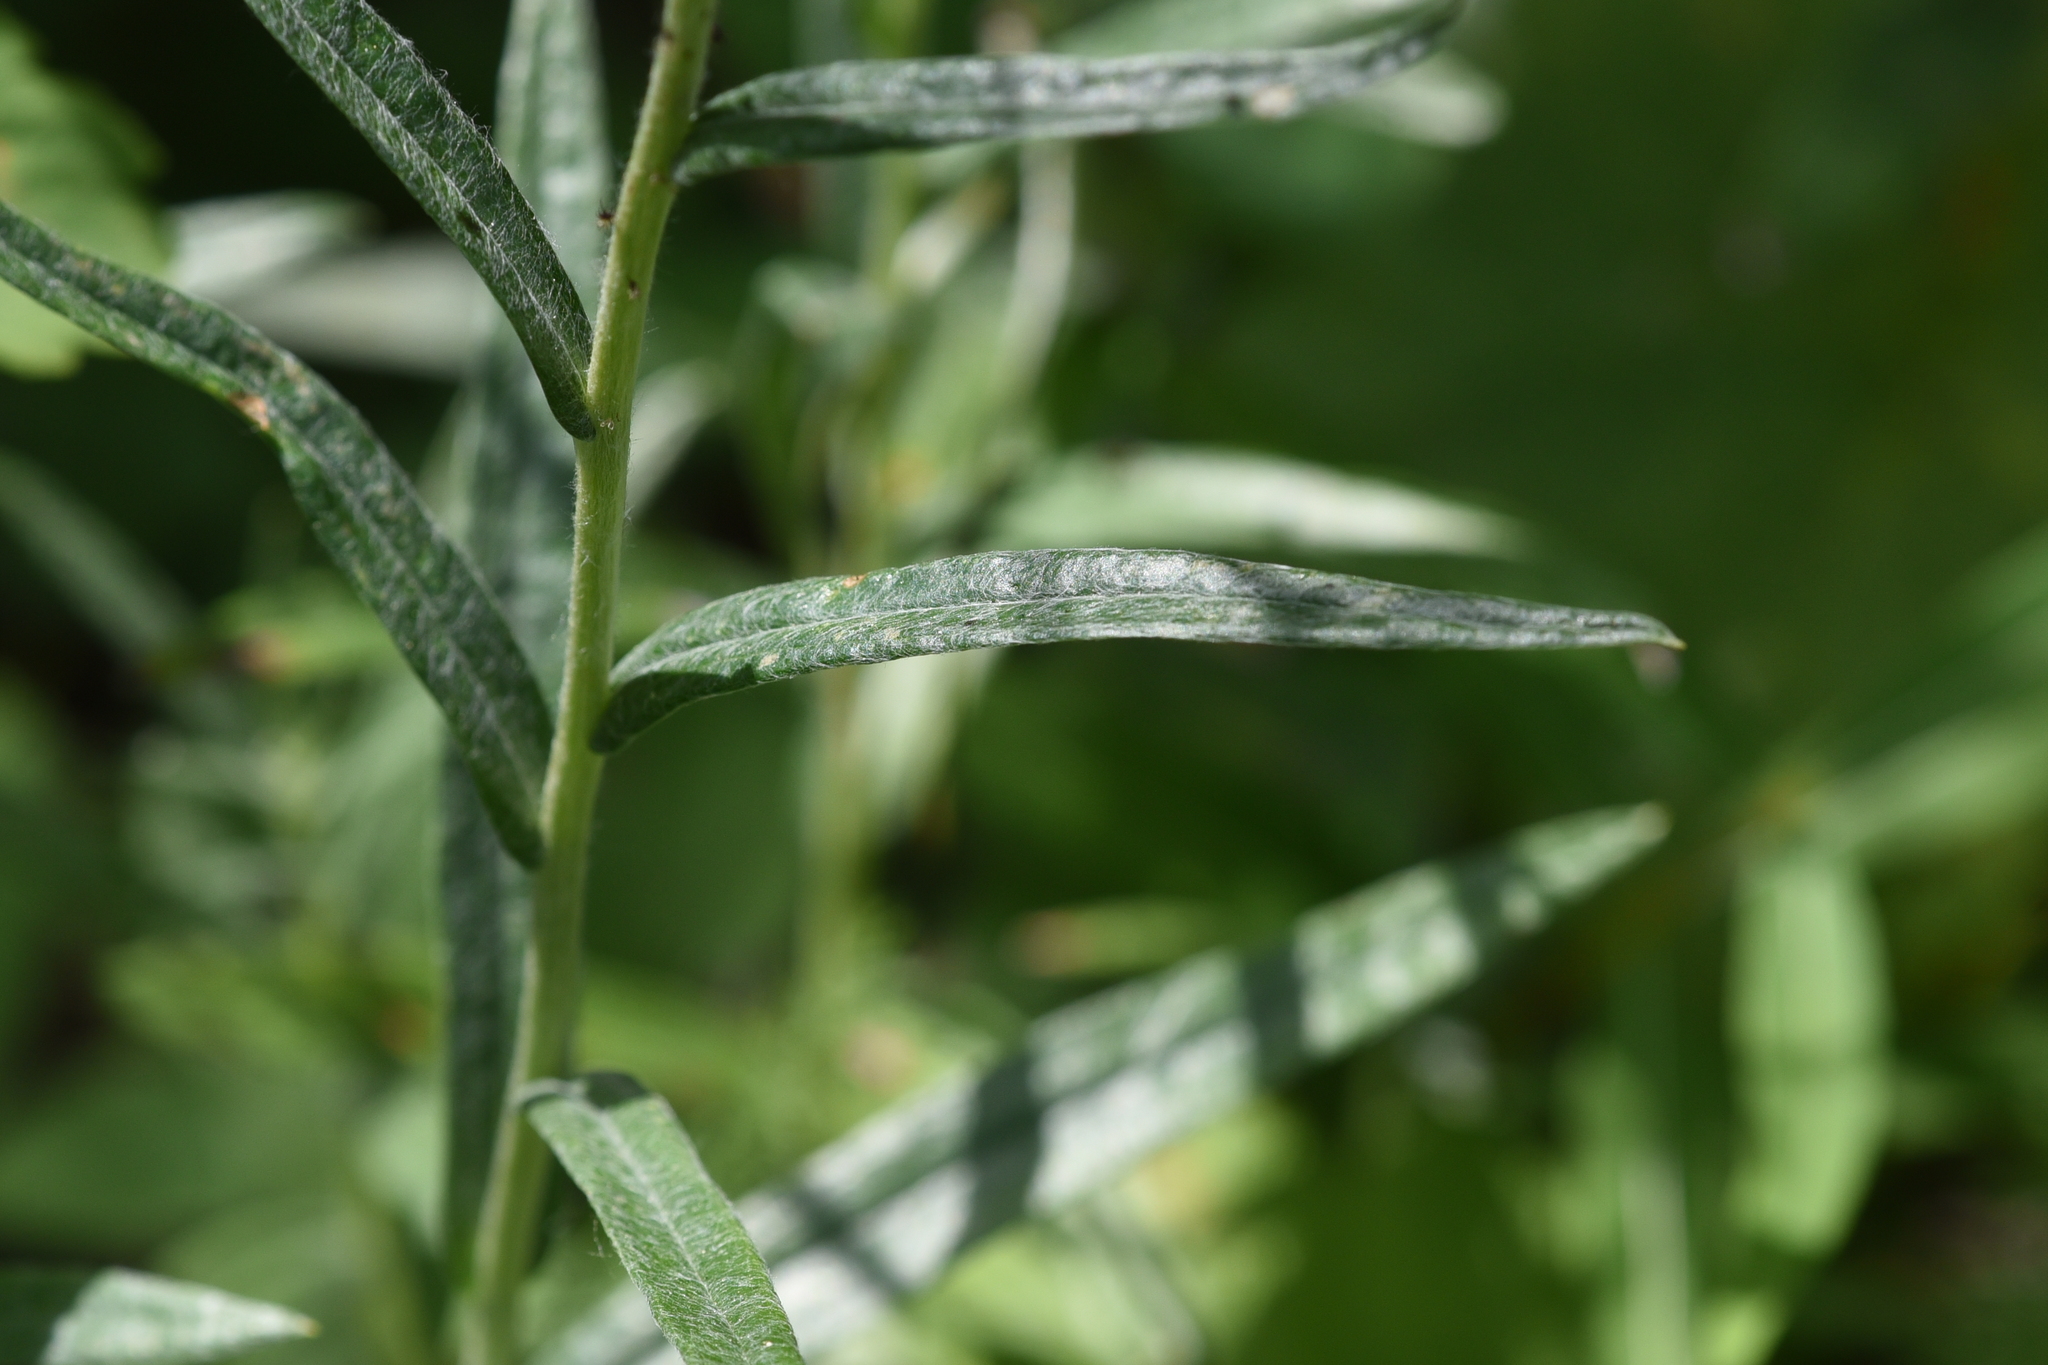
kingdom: Plantae
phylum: Tracheophyta
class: Magnoliopsida
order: Asterales
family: Asteraceae
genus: Anaphalis
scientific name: Anaphalis margaritacea
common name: Pearly everlasting
